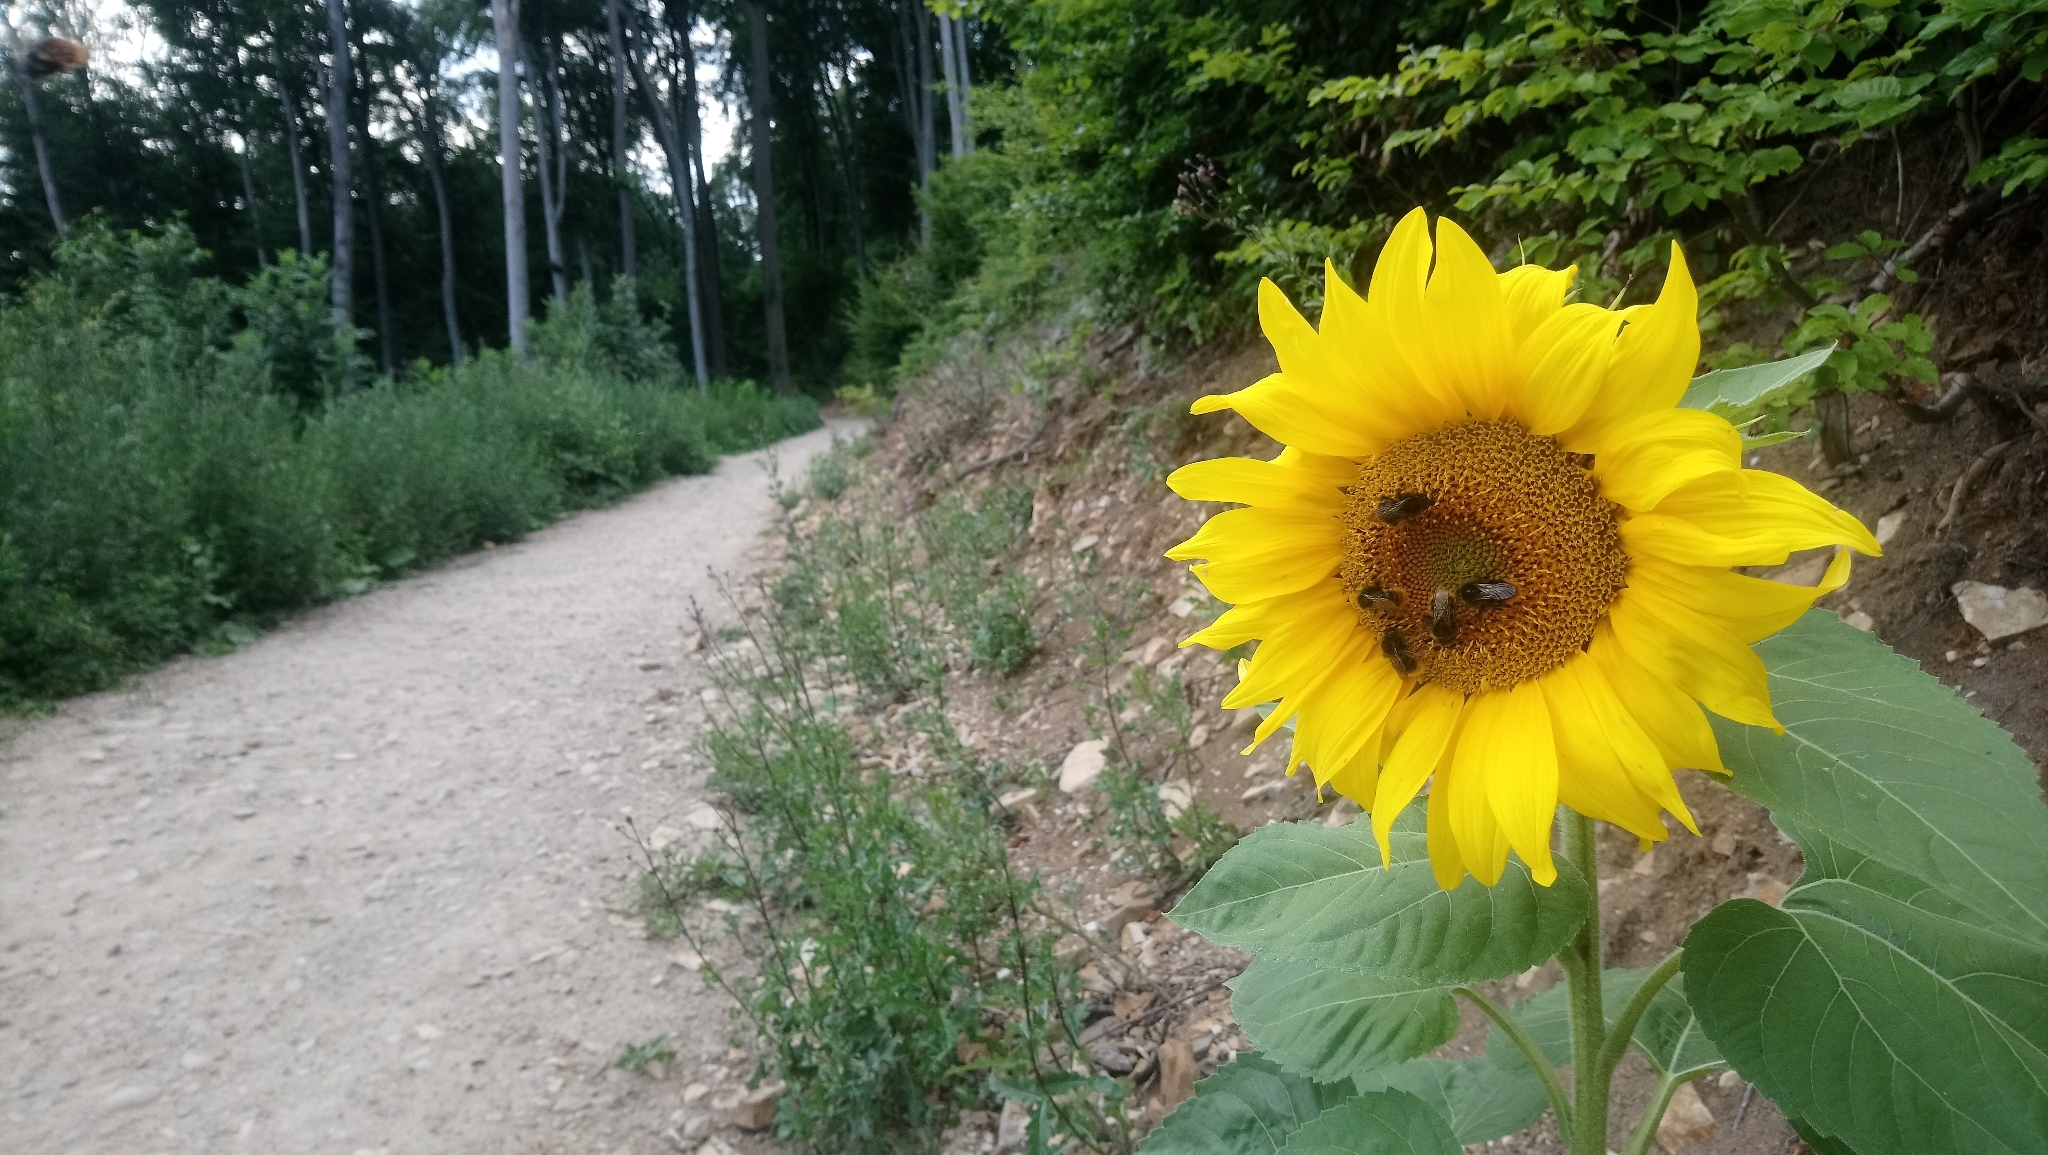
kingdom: Plantae
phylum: Tracheophyta
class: Magnoliopsida
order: Asterales
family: Asteraceae
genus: Helianthus
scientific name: Helianthus annuus
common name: Sunflower
